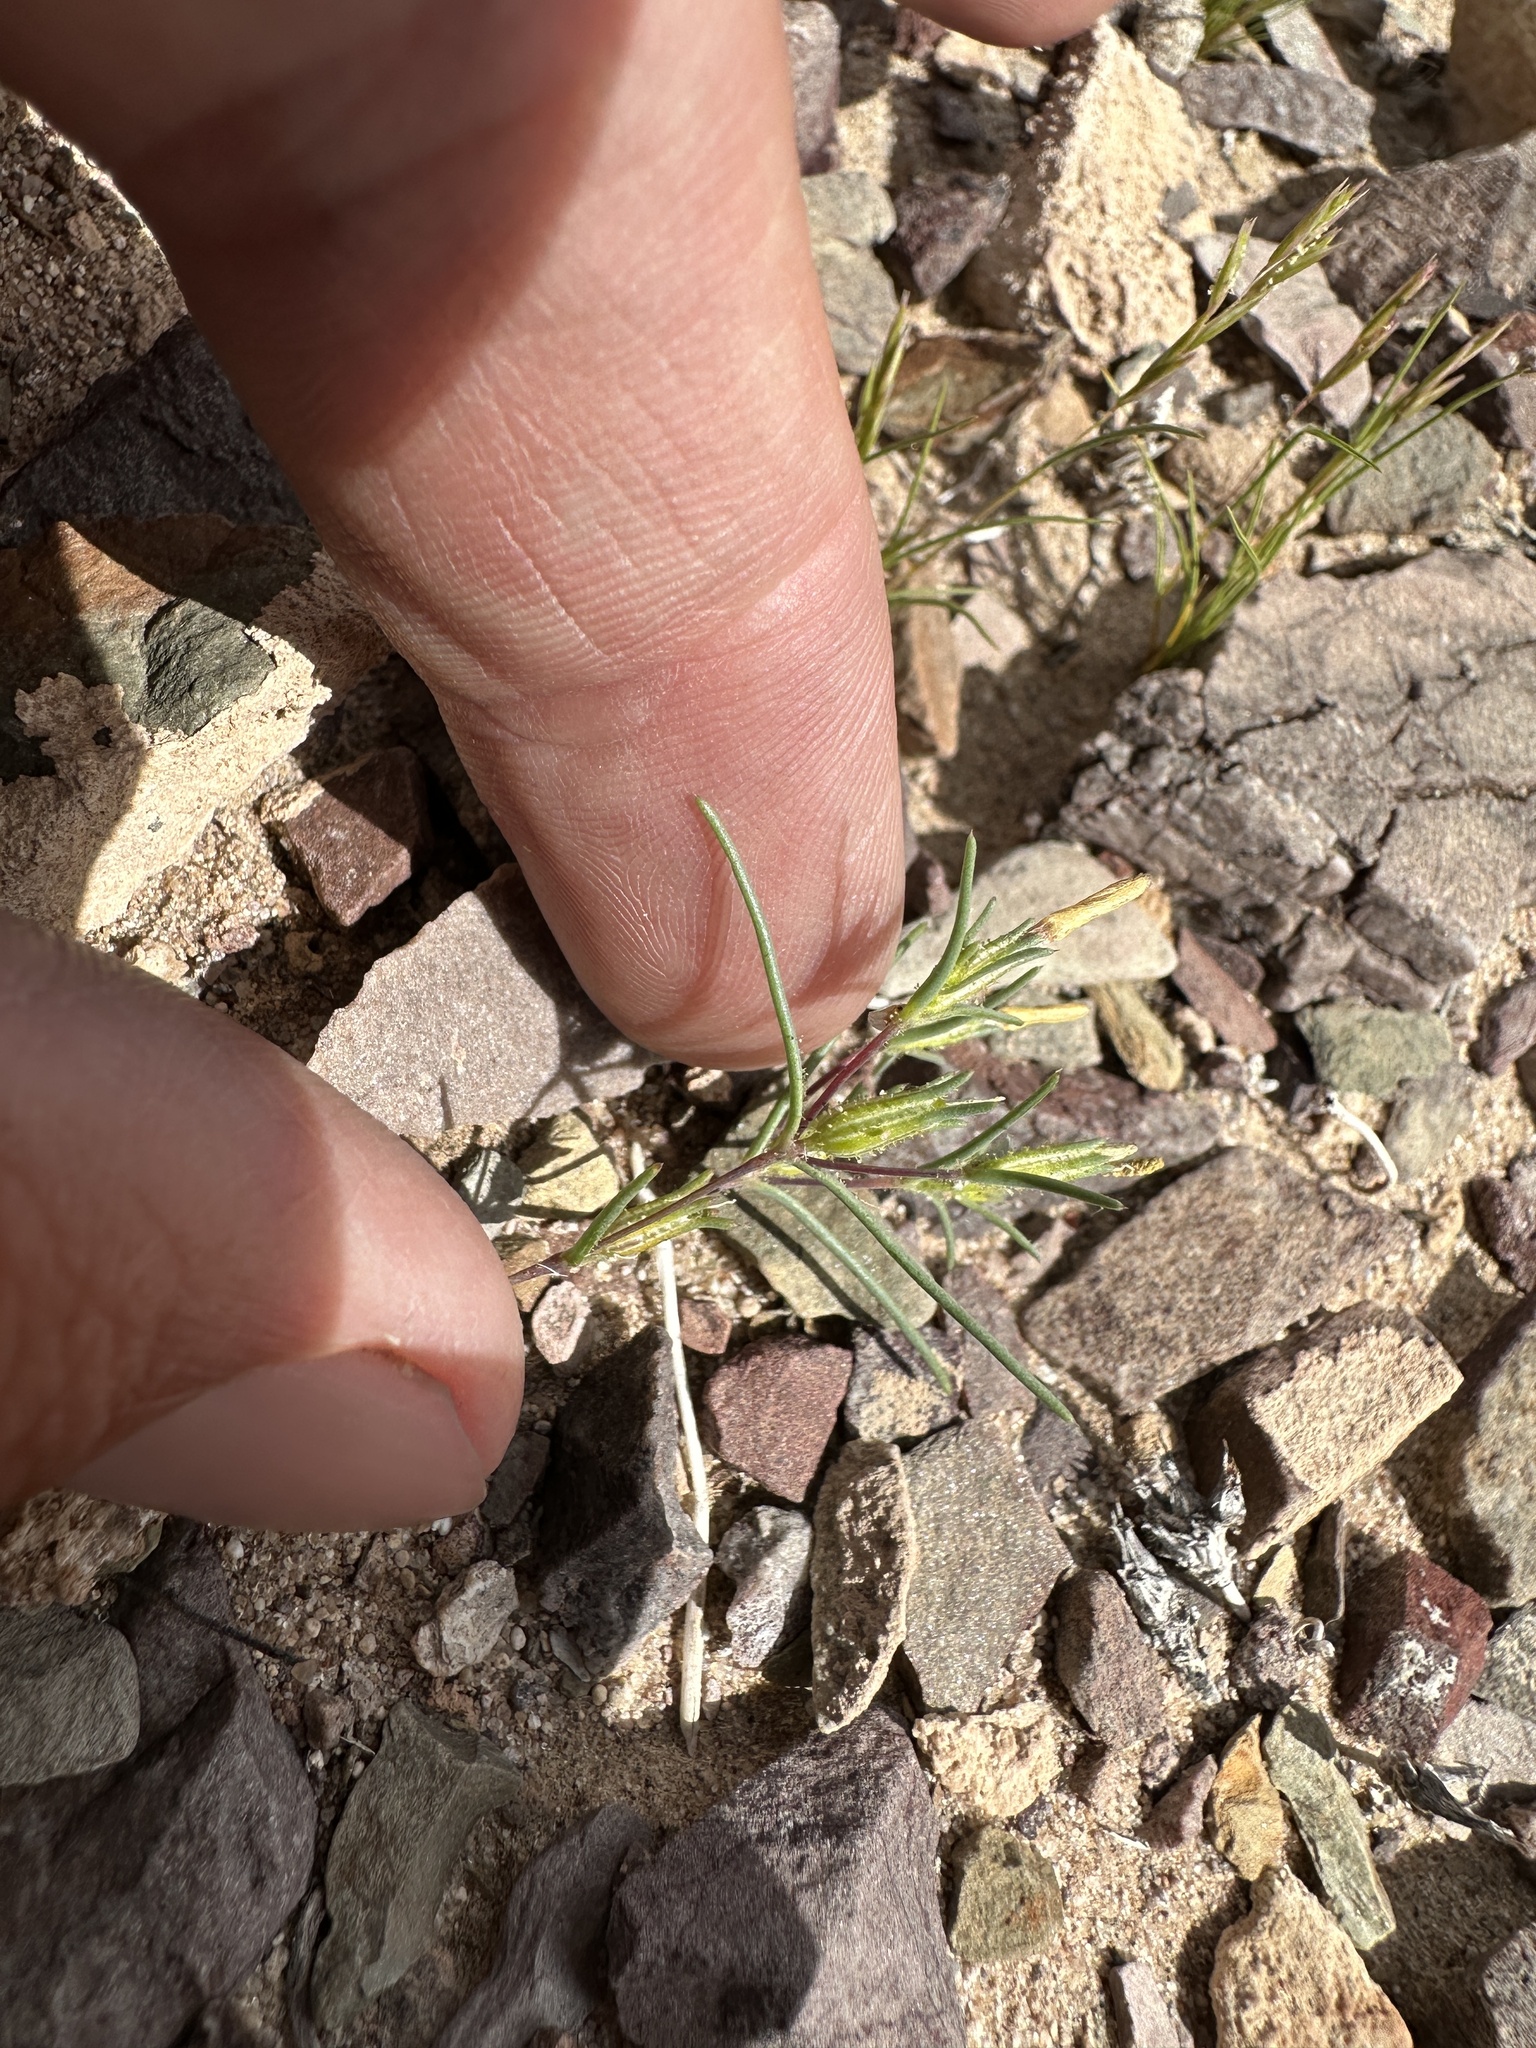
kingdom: Plantae
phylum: Tracheophyta
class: Magnoliopsida
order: Ericales
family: Polemoniaceae
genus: Linanthus
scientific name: Linanthus jonesii
